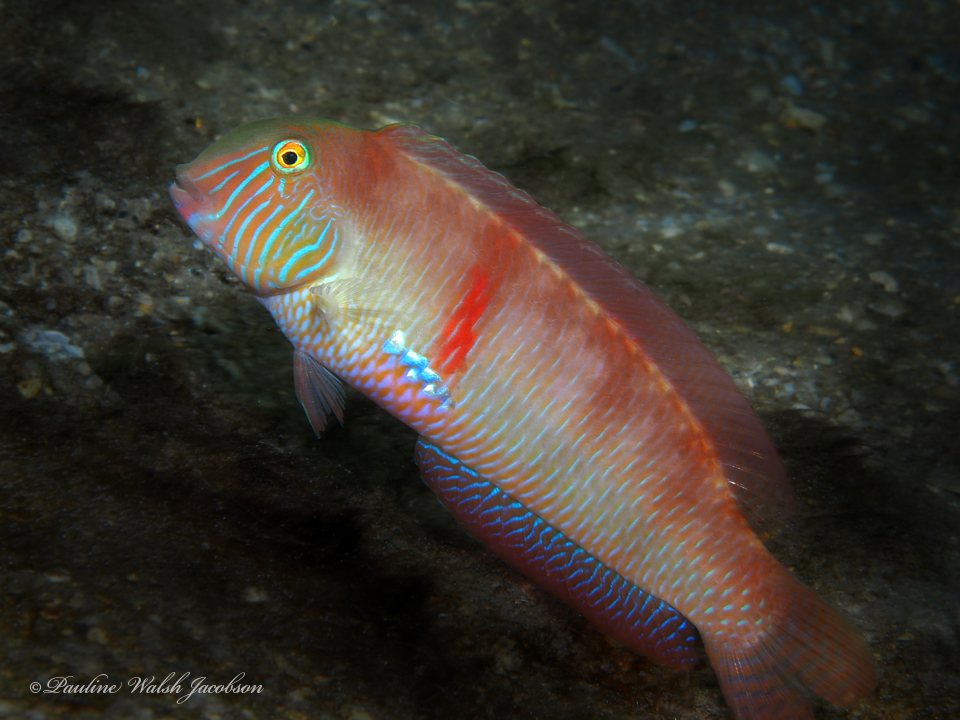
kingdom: Animalia
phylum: Chordata
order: Perciformes
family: Labridae
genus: Xyrichtys
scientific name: Xyrichtys novacula
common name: Pearly razorfish
